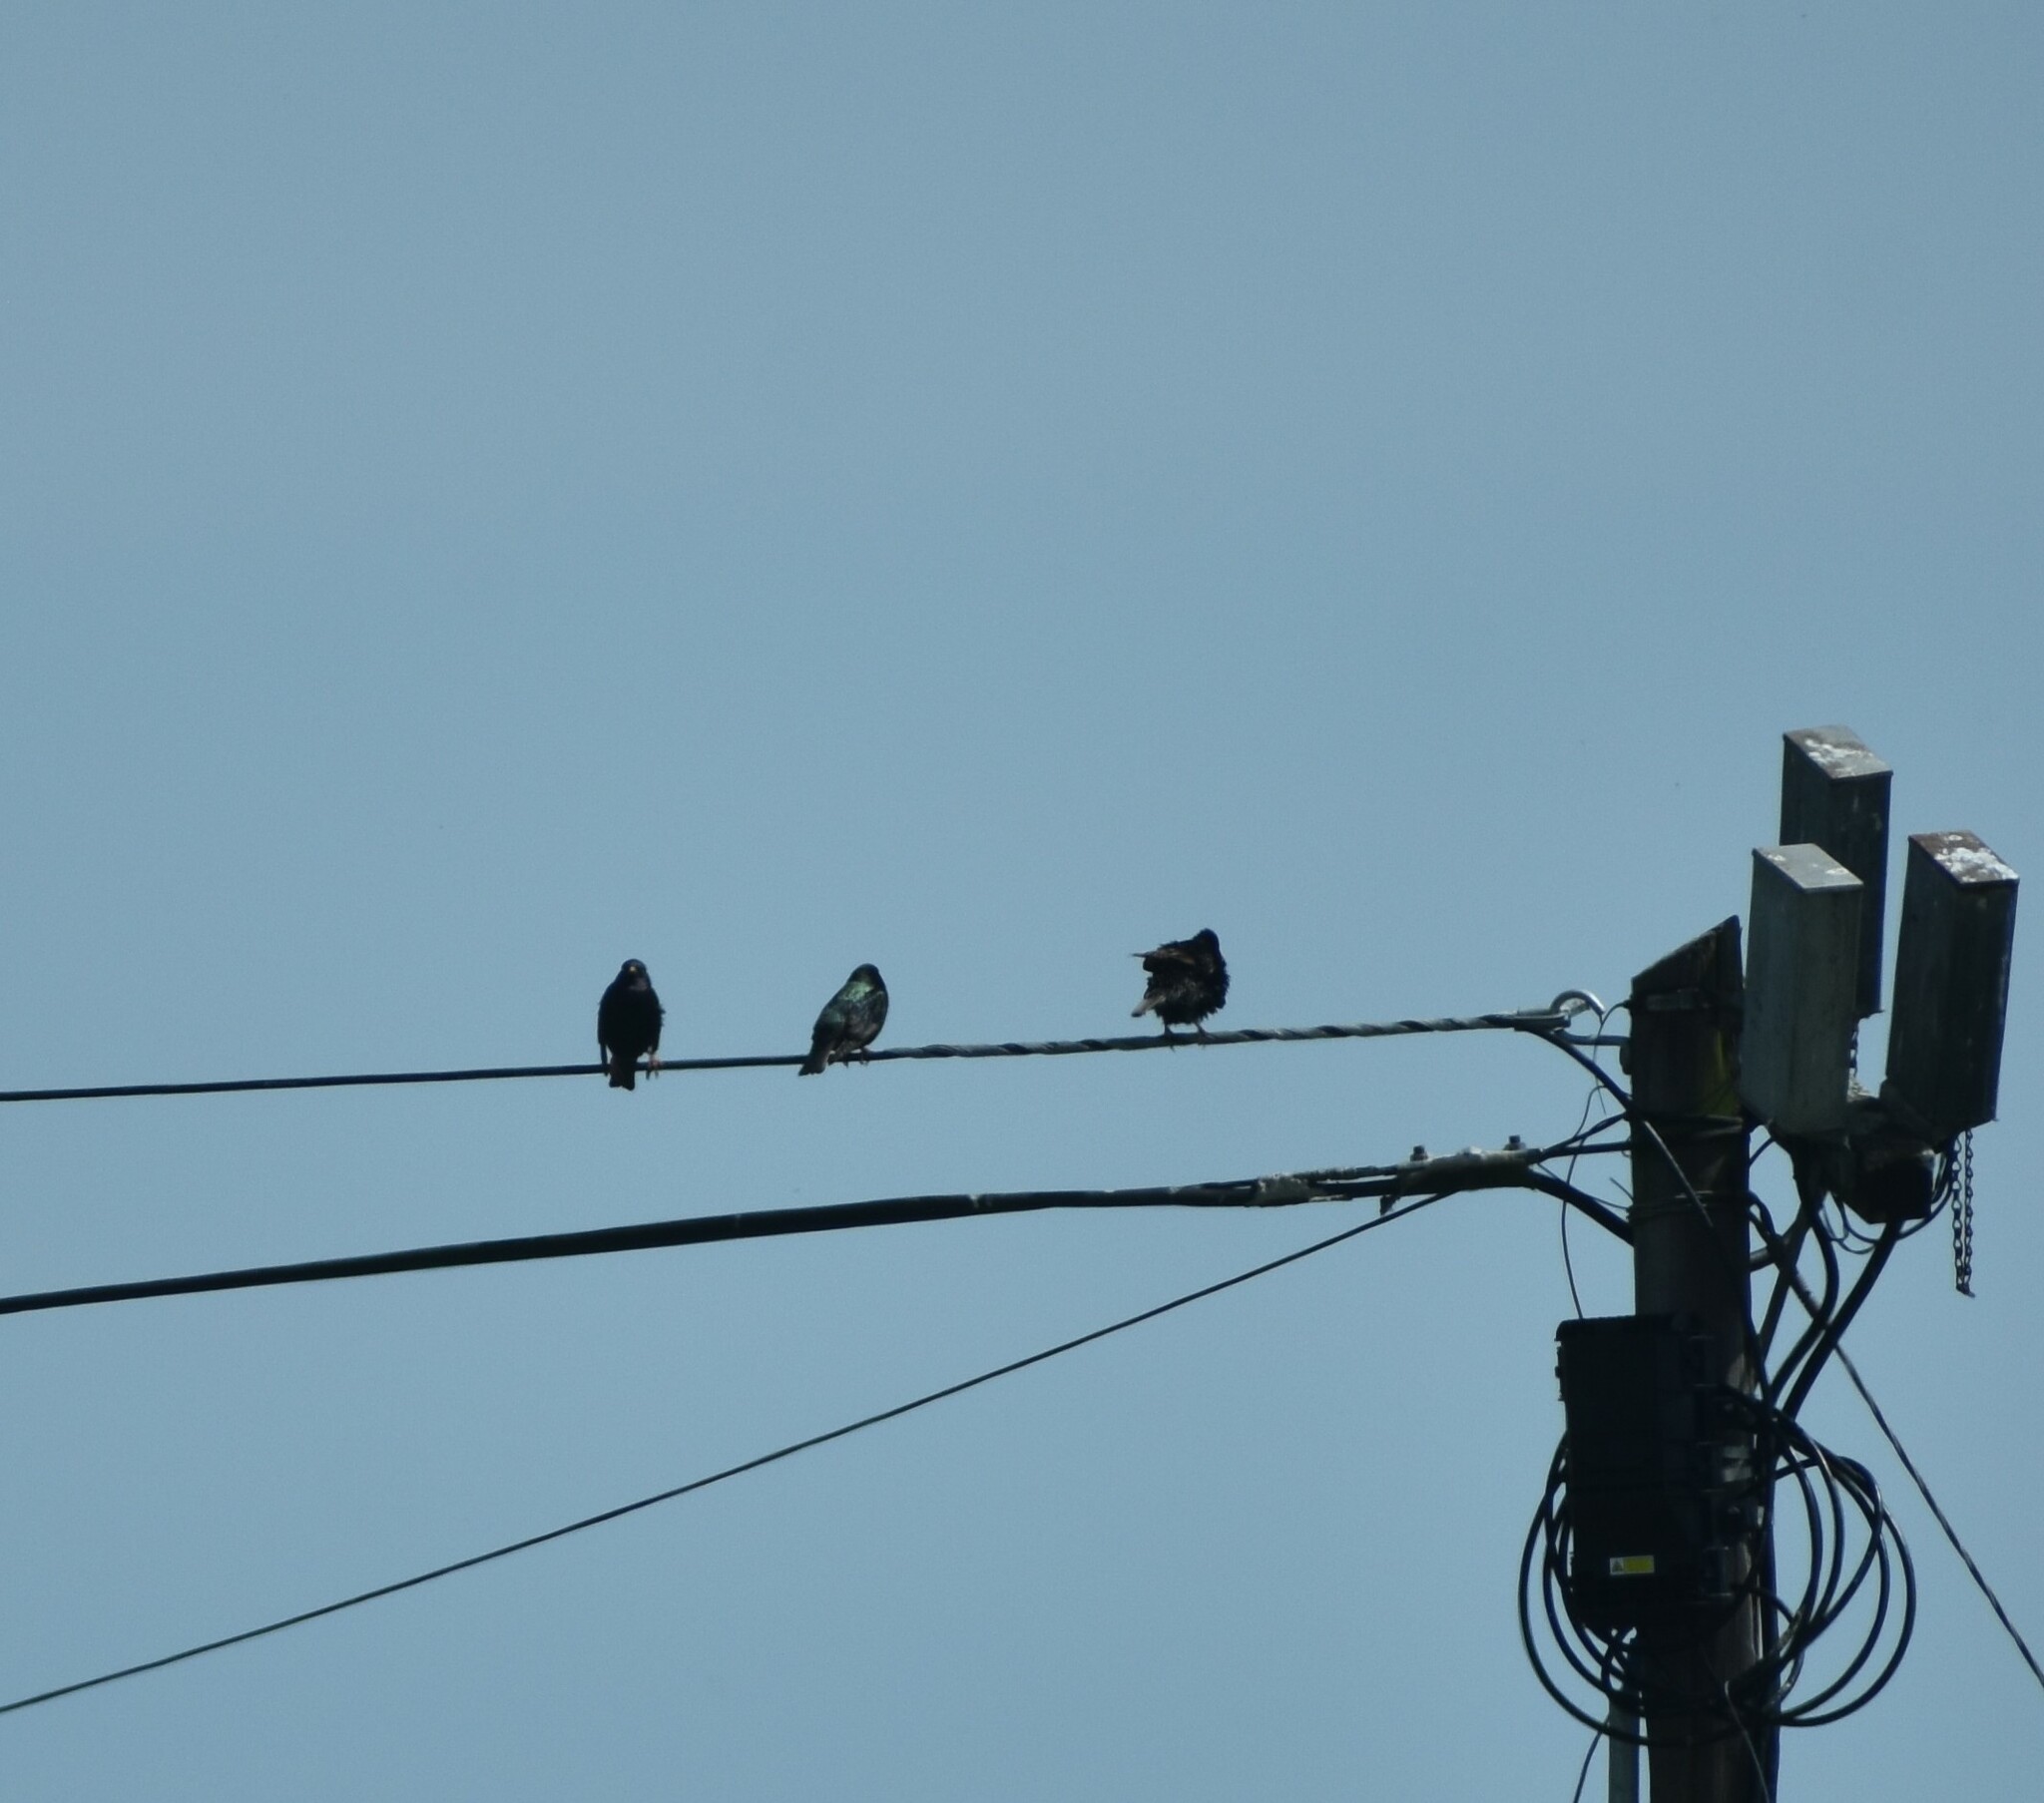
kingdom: Animalia
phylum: Chordata
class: Aves
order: Passeriformes
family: Sturnidae
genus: Sturnus
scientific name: Sturnus vulgaris
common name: Common starling
